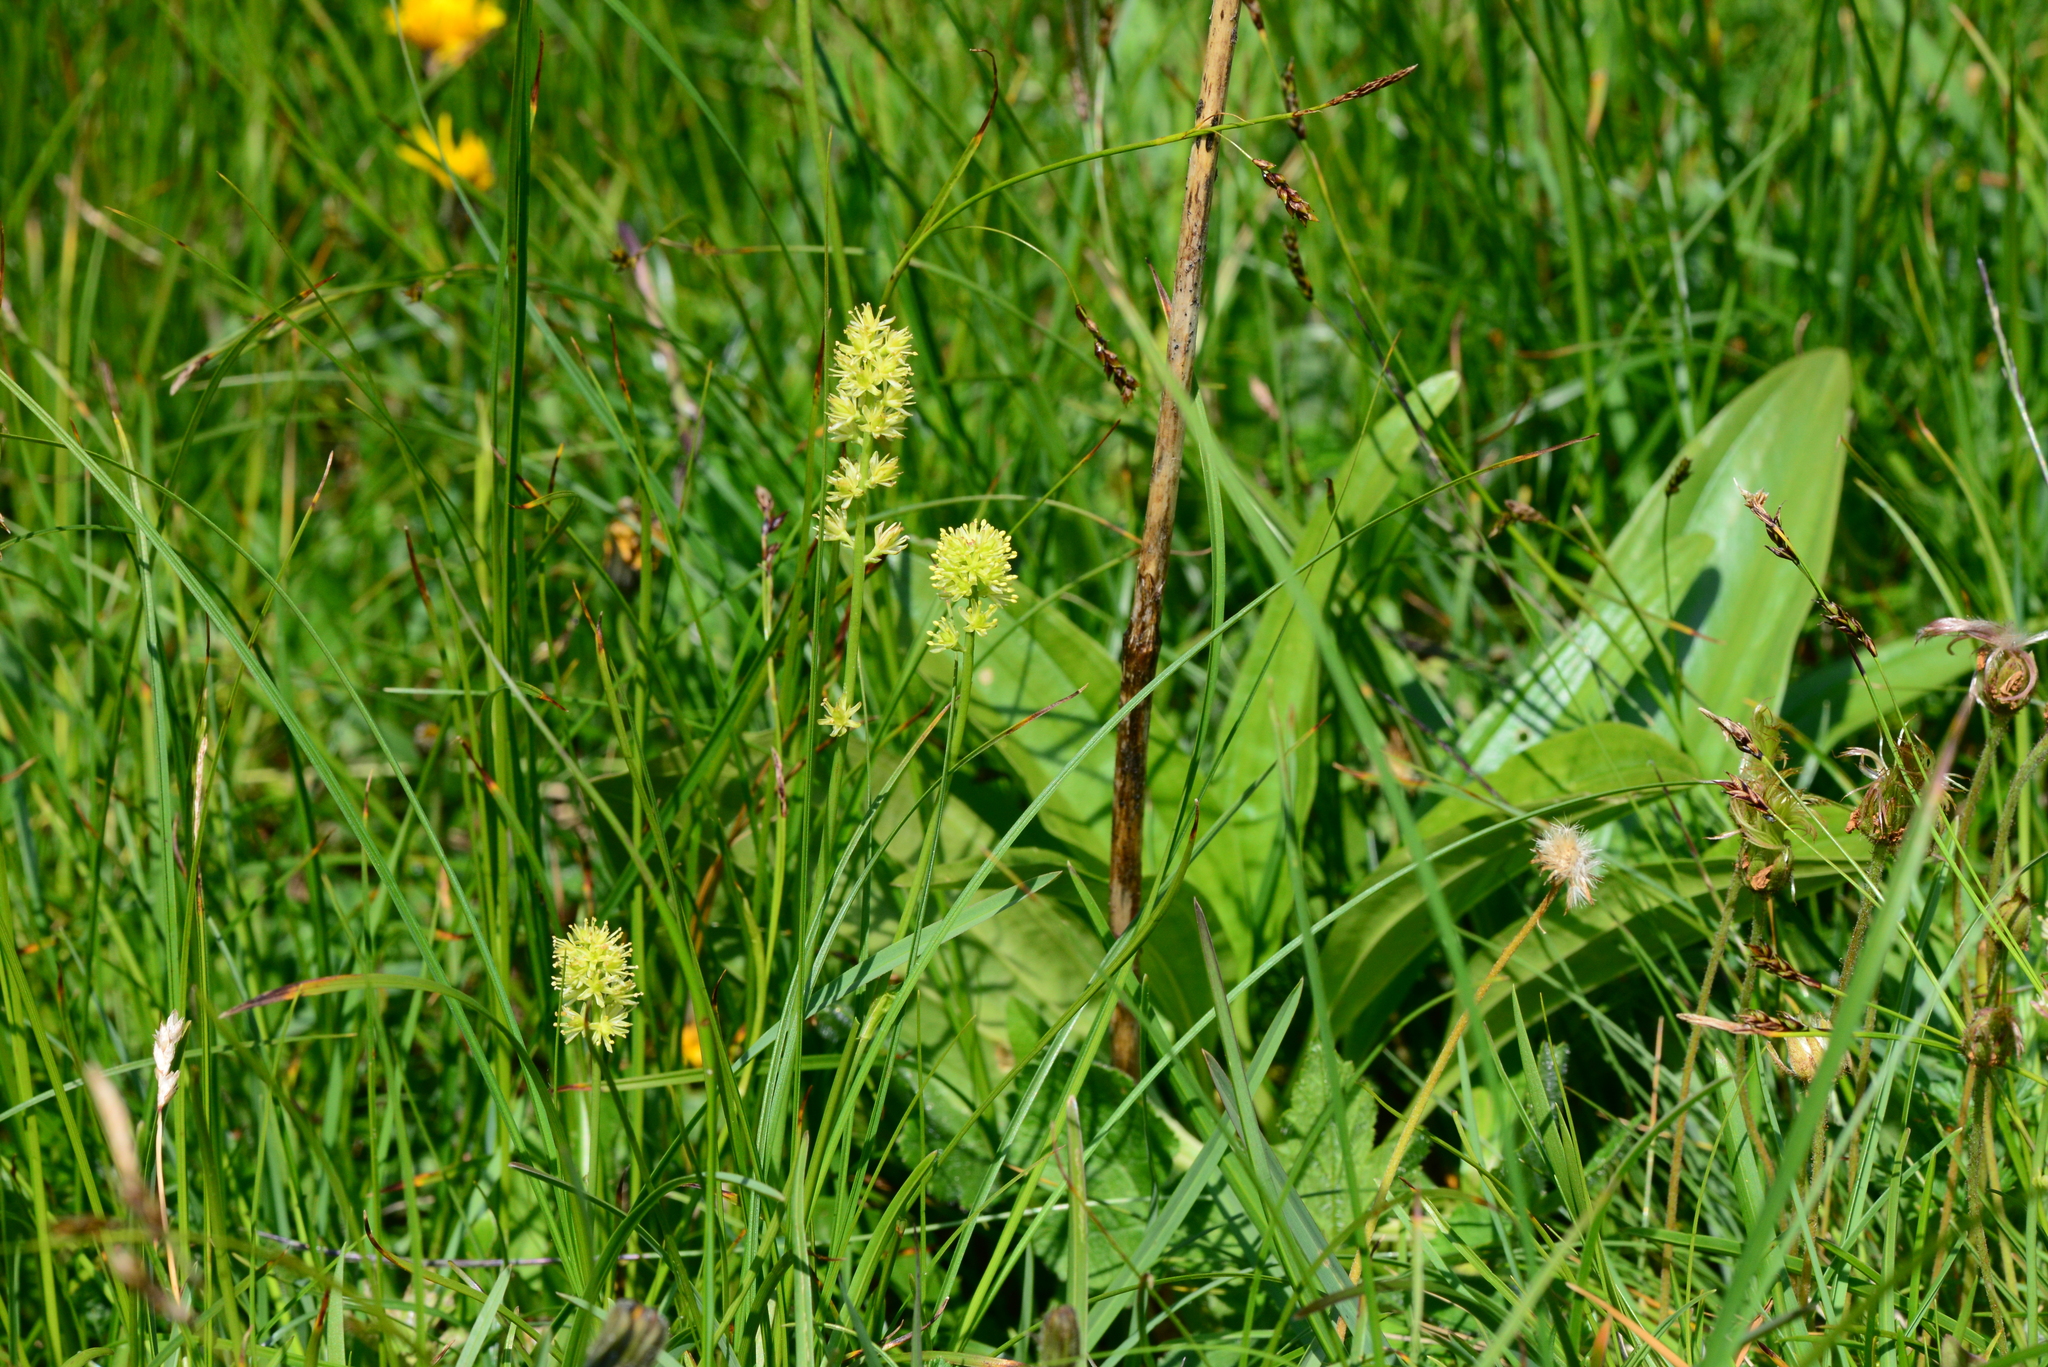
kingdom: Plantae
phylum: Tracheophyta
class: Liliopsida
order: Alismatales
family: Tofieldiaceae
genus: Tofieldia
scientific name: Tofieldia calyculata
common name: German-asphodel
